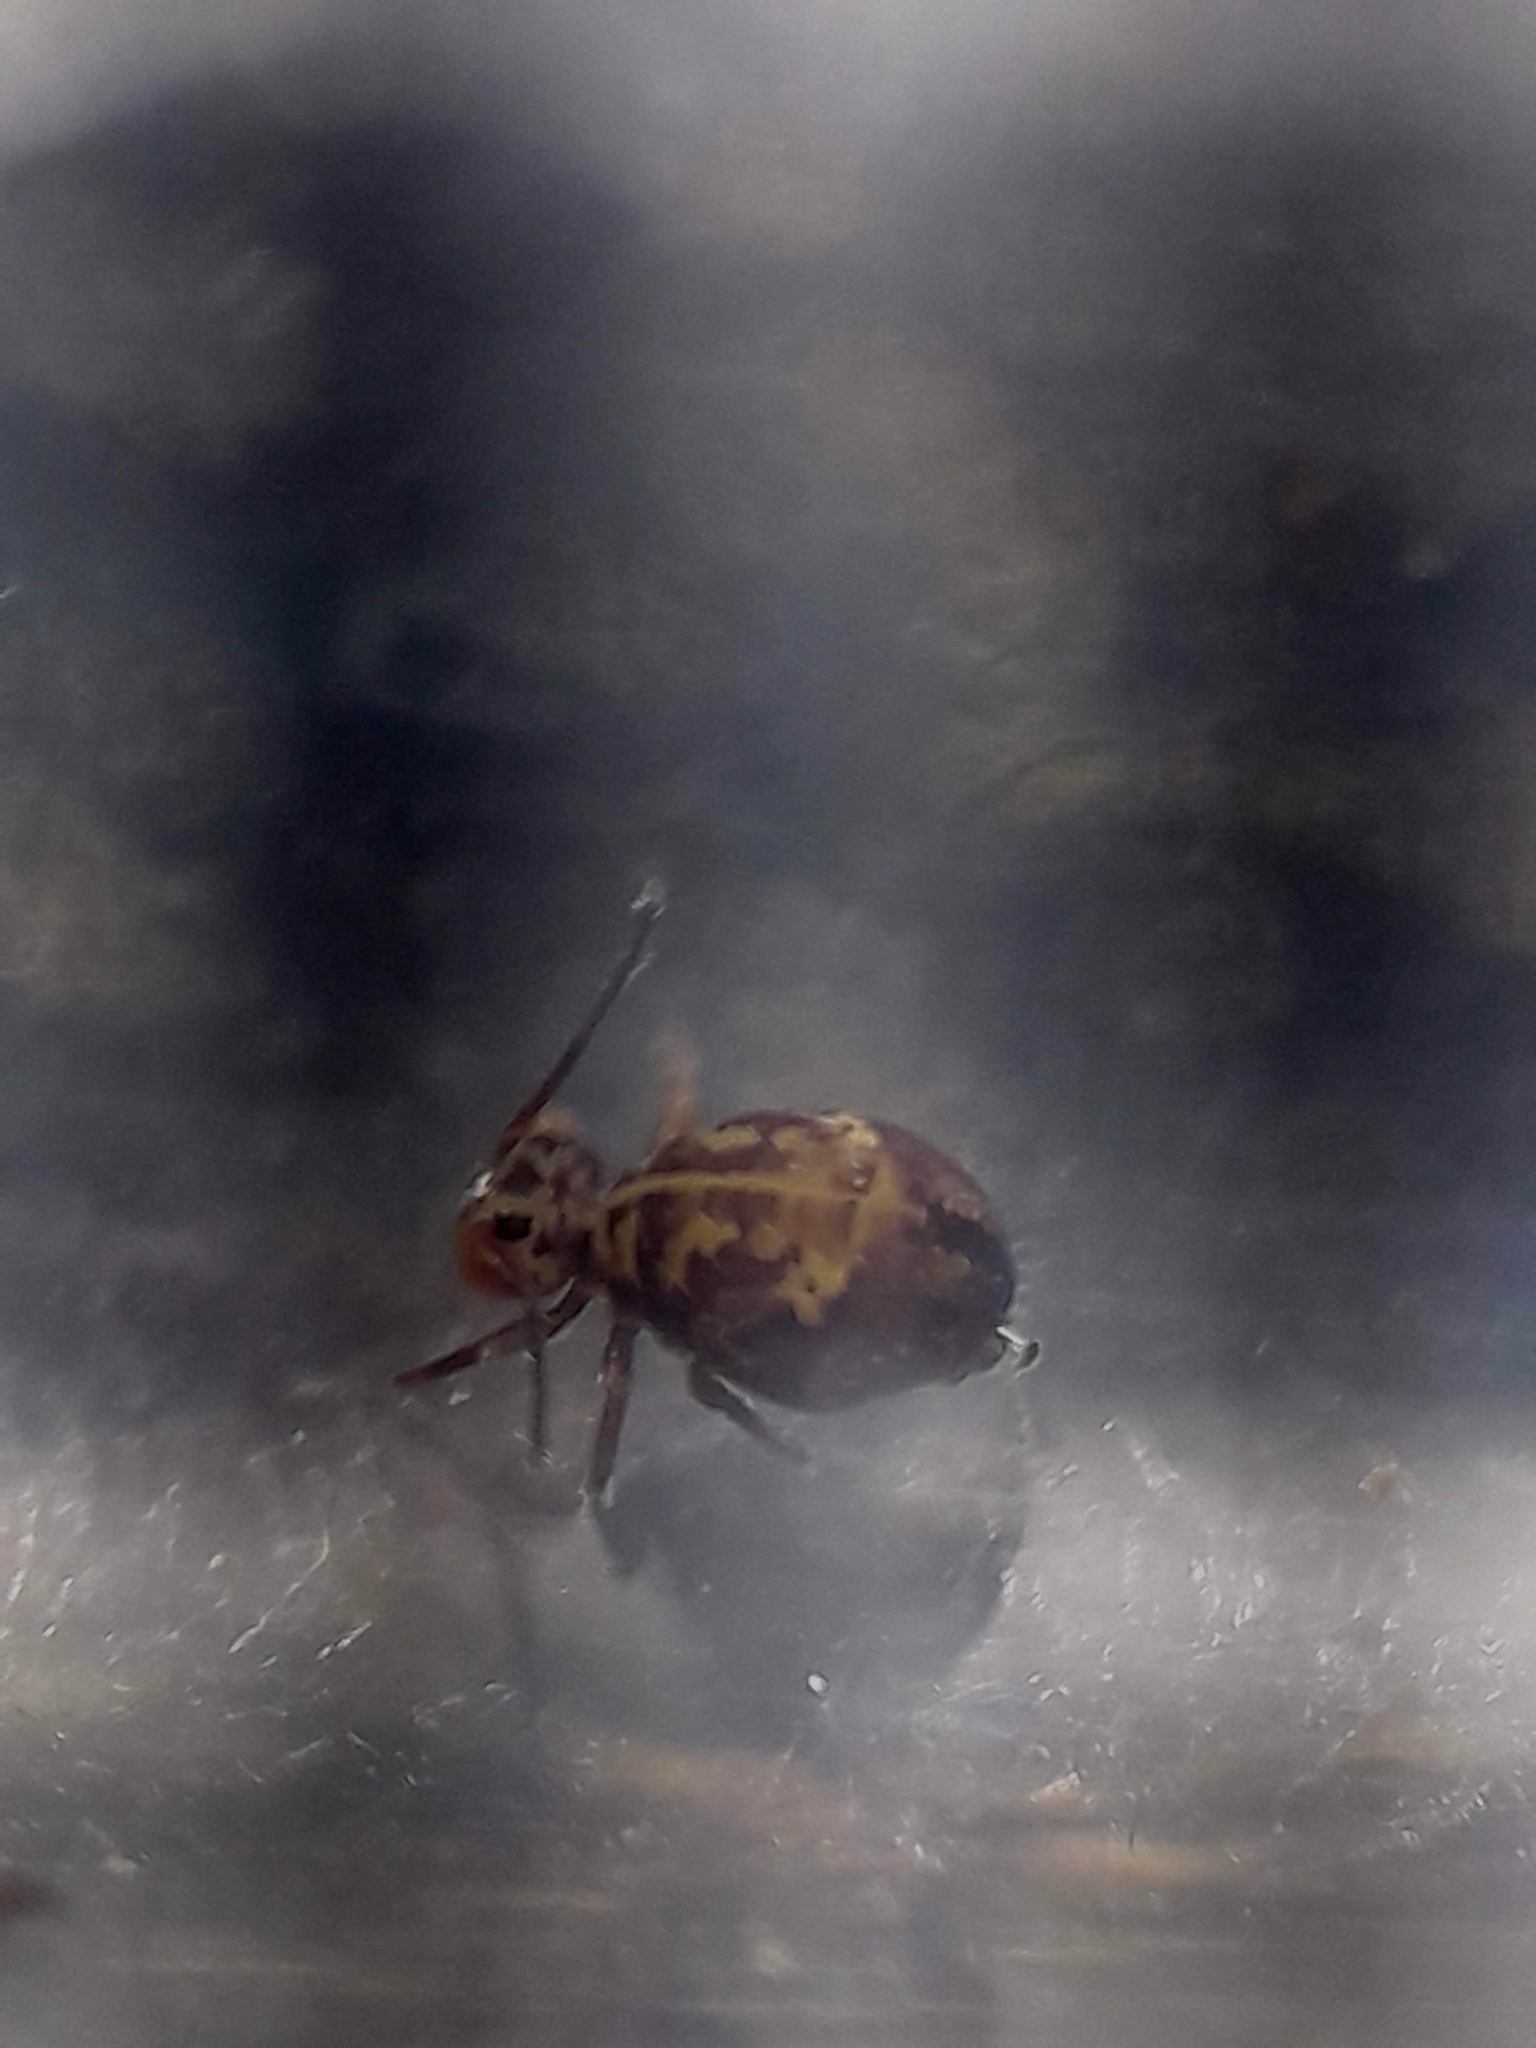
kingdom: Animalia
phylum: Arthropoda
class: Collembola
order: Symphypleona
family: Dicyrtomidae
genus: Dicyrtomina
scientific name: Dicyrtomina ornata
